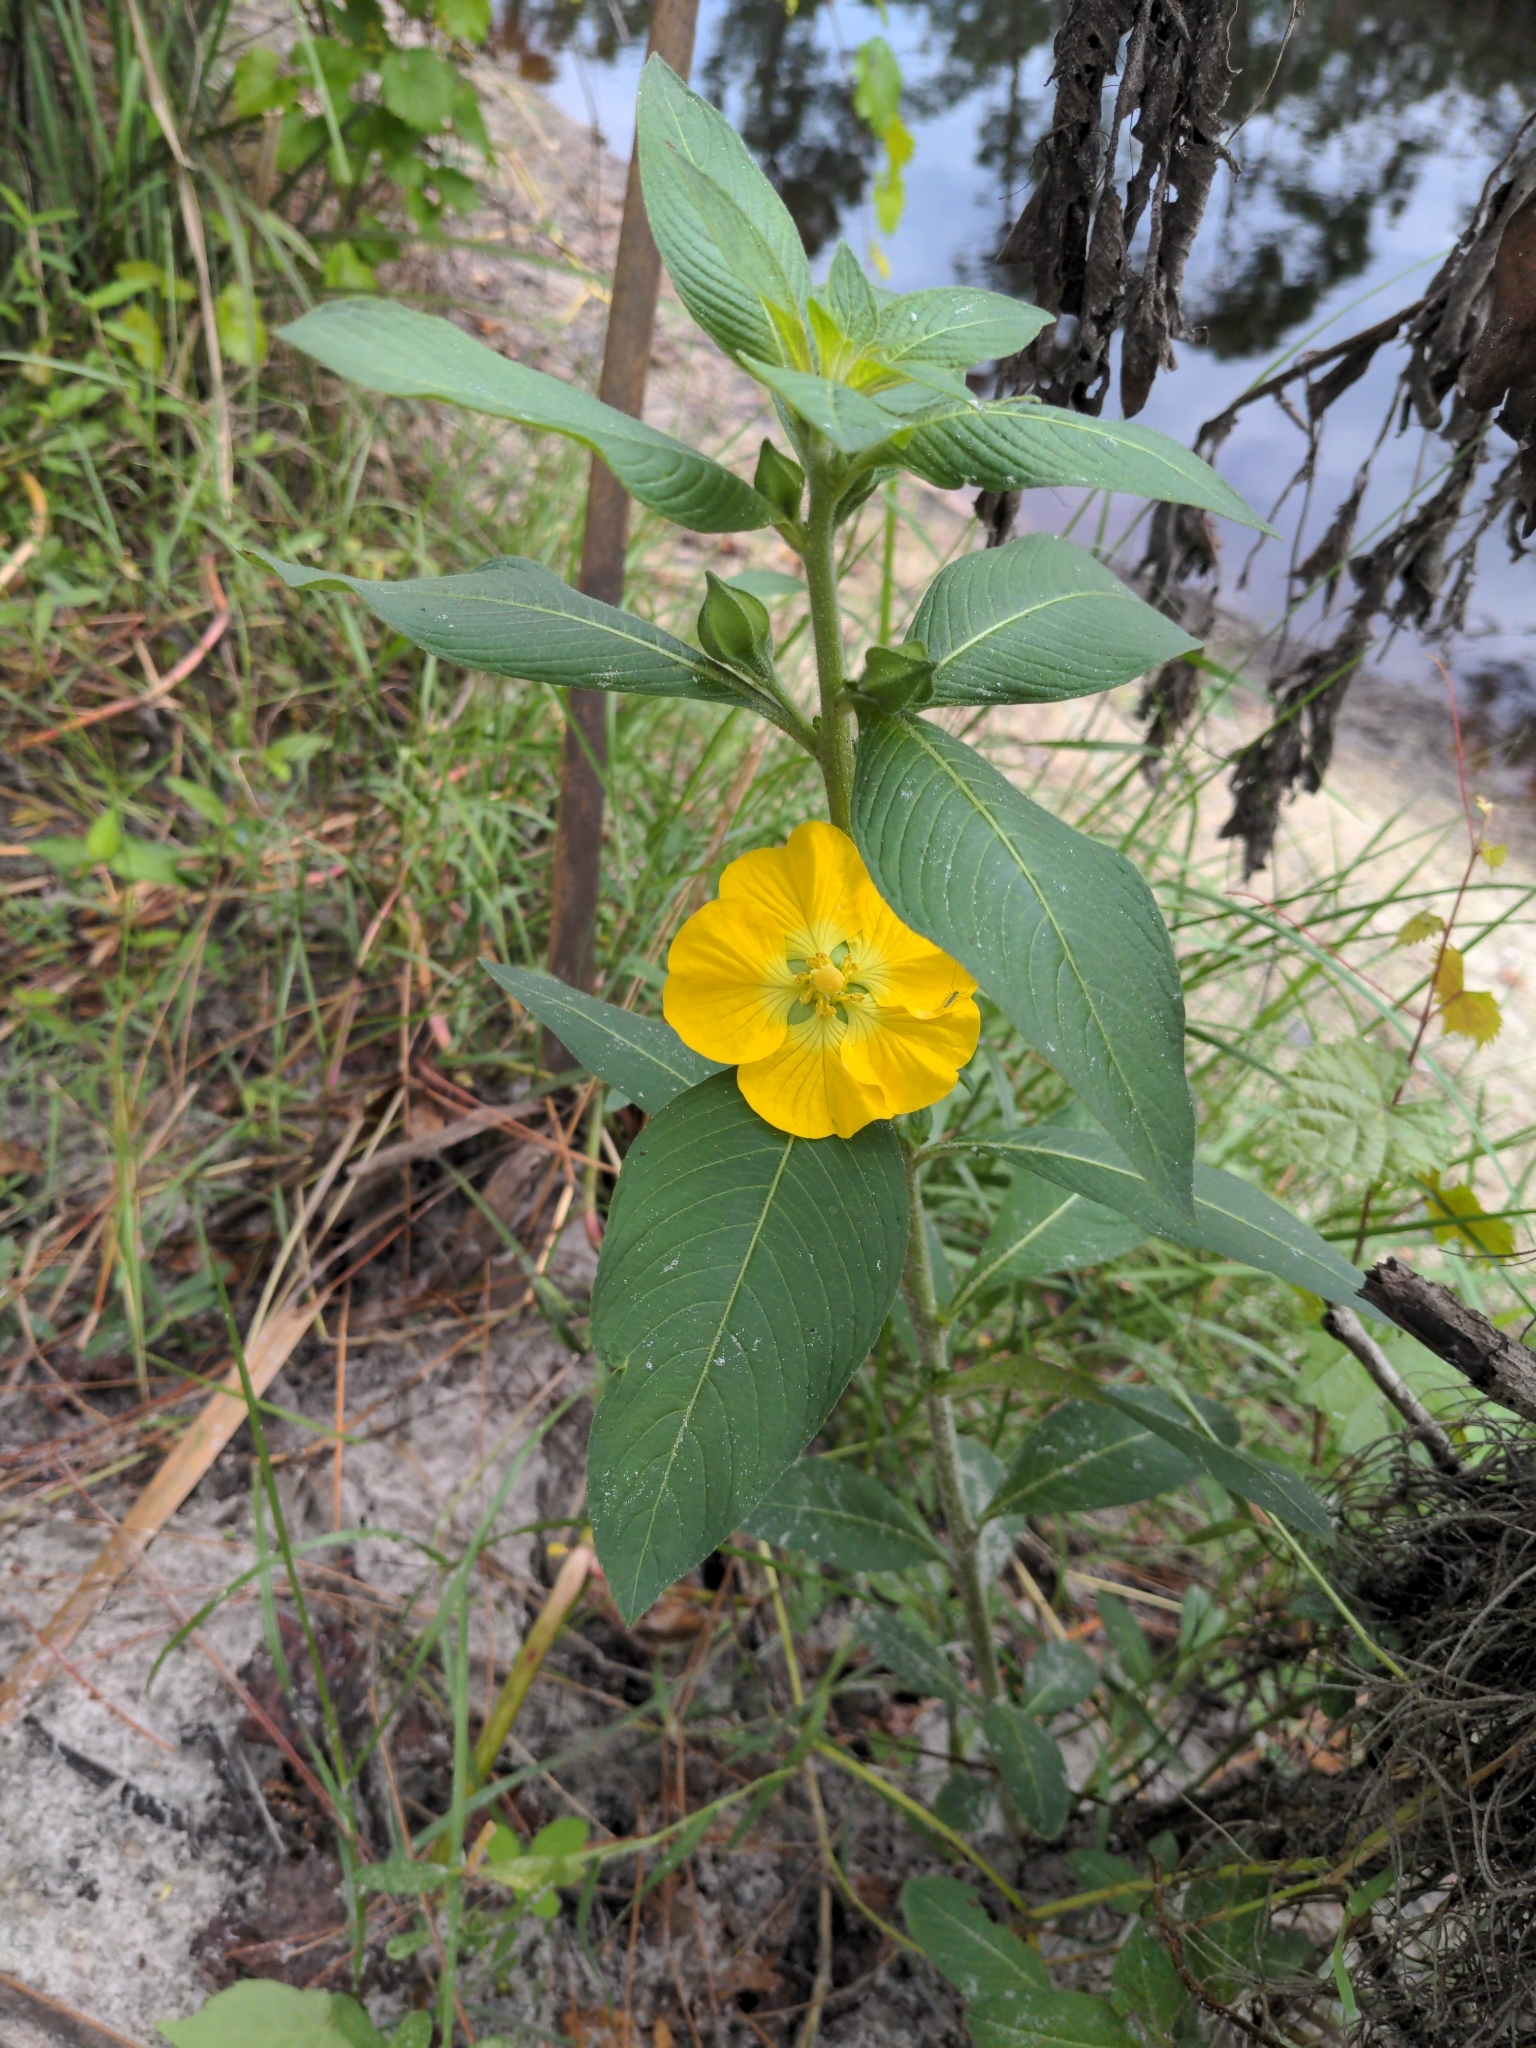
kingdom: Plantae
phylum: Tracheophyta
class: Magnoliopsida
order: Myrtales
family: Onagraceae
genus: Ludwigia
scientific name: Ludwigia peruviana
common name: Peruvian primrose-willow
